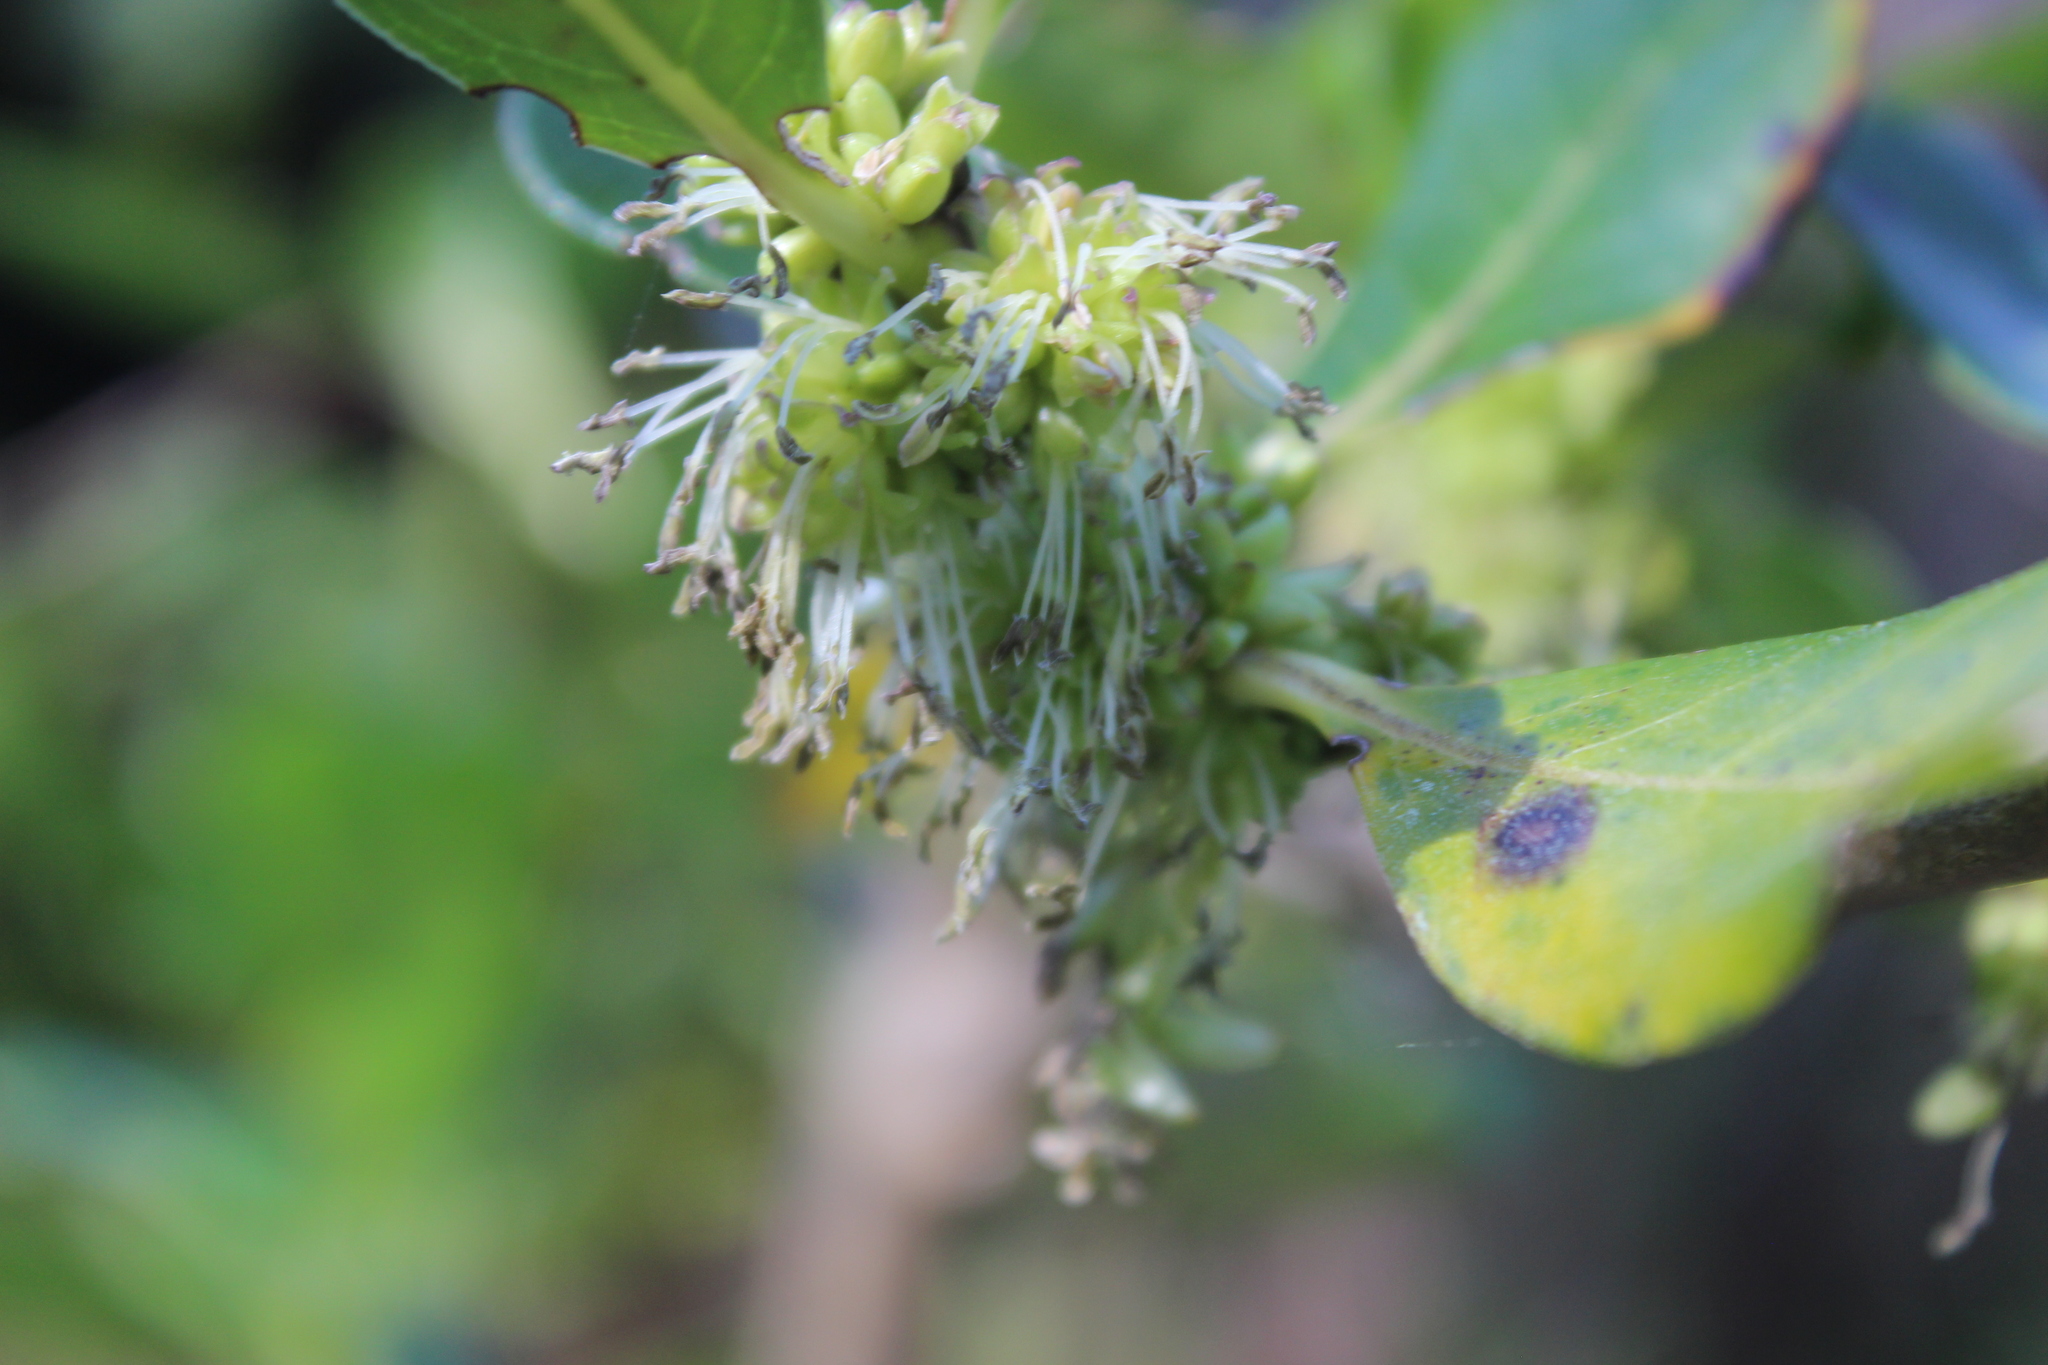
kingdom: Plantae
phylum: Tracheophyta
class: Magnoliopsida
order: Gentianales
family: Rubiaceae
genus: Coprosma
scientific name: Coprosma robusta
